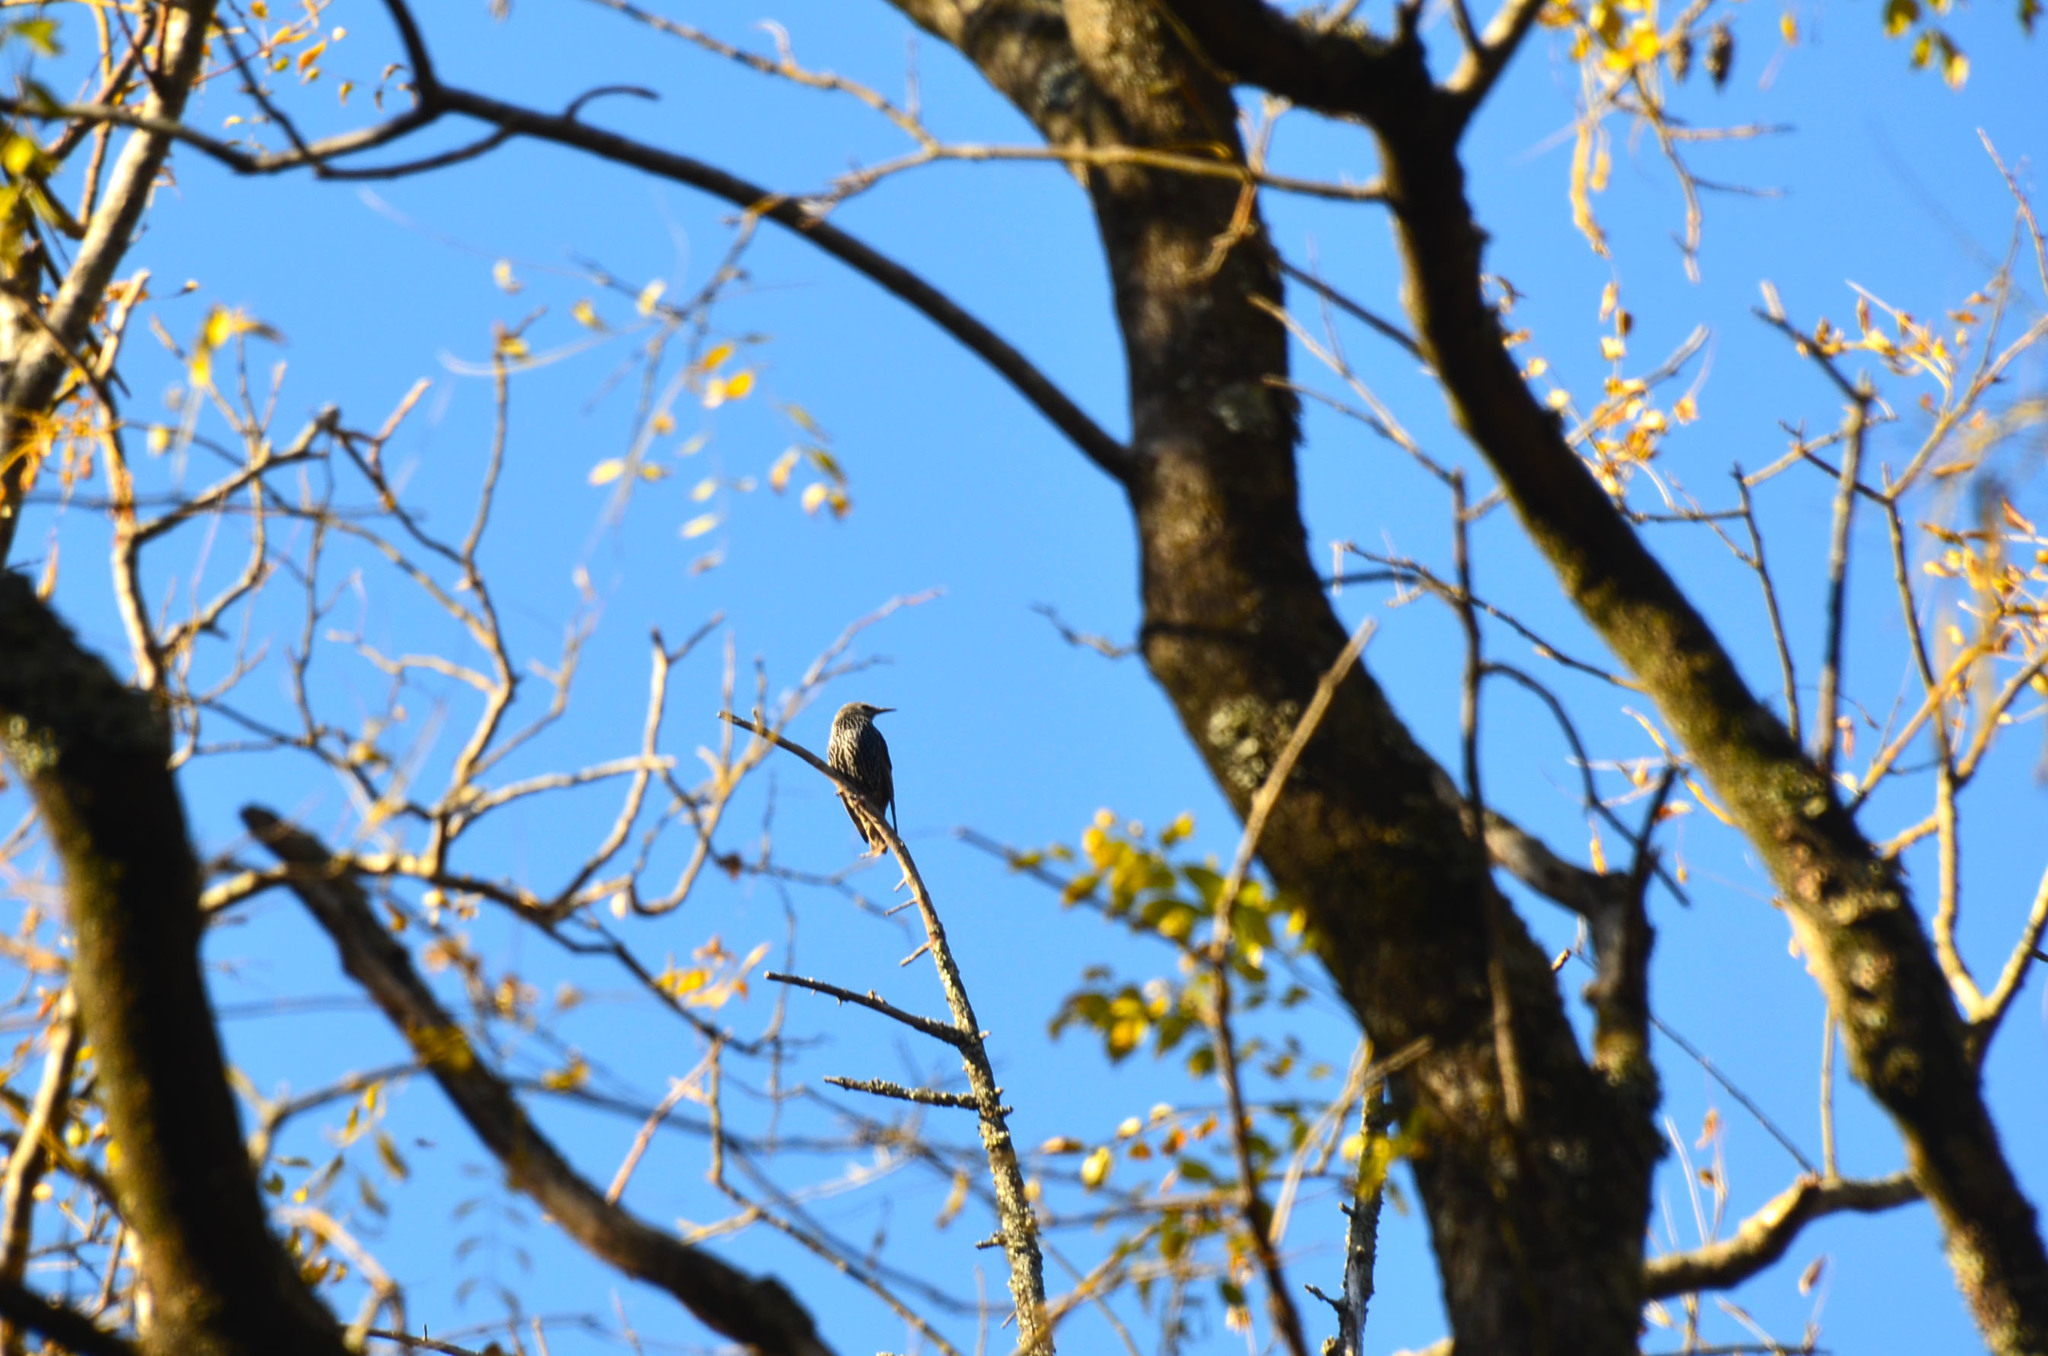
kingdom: Animalia
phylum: Chordata
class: Aves
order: Passeriformes
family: Sturnidae
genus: Sturnus
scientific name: Sturnus vulgaris
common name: Common starling
